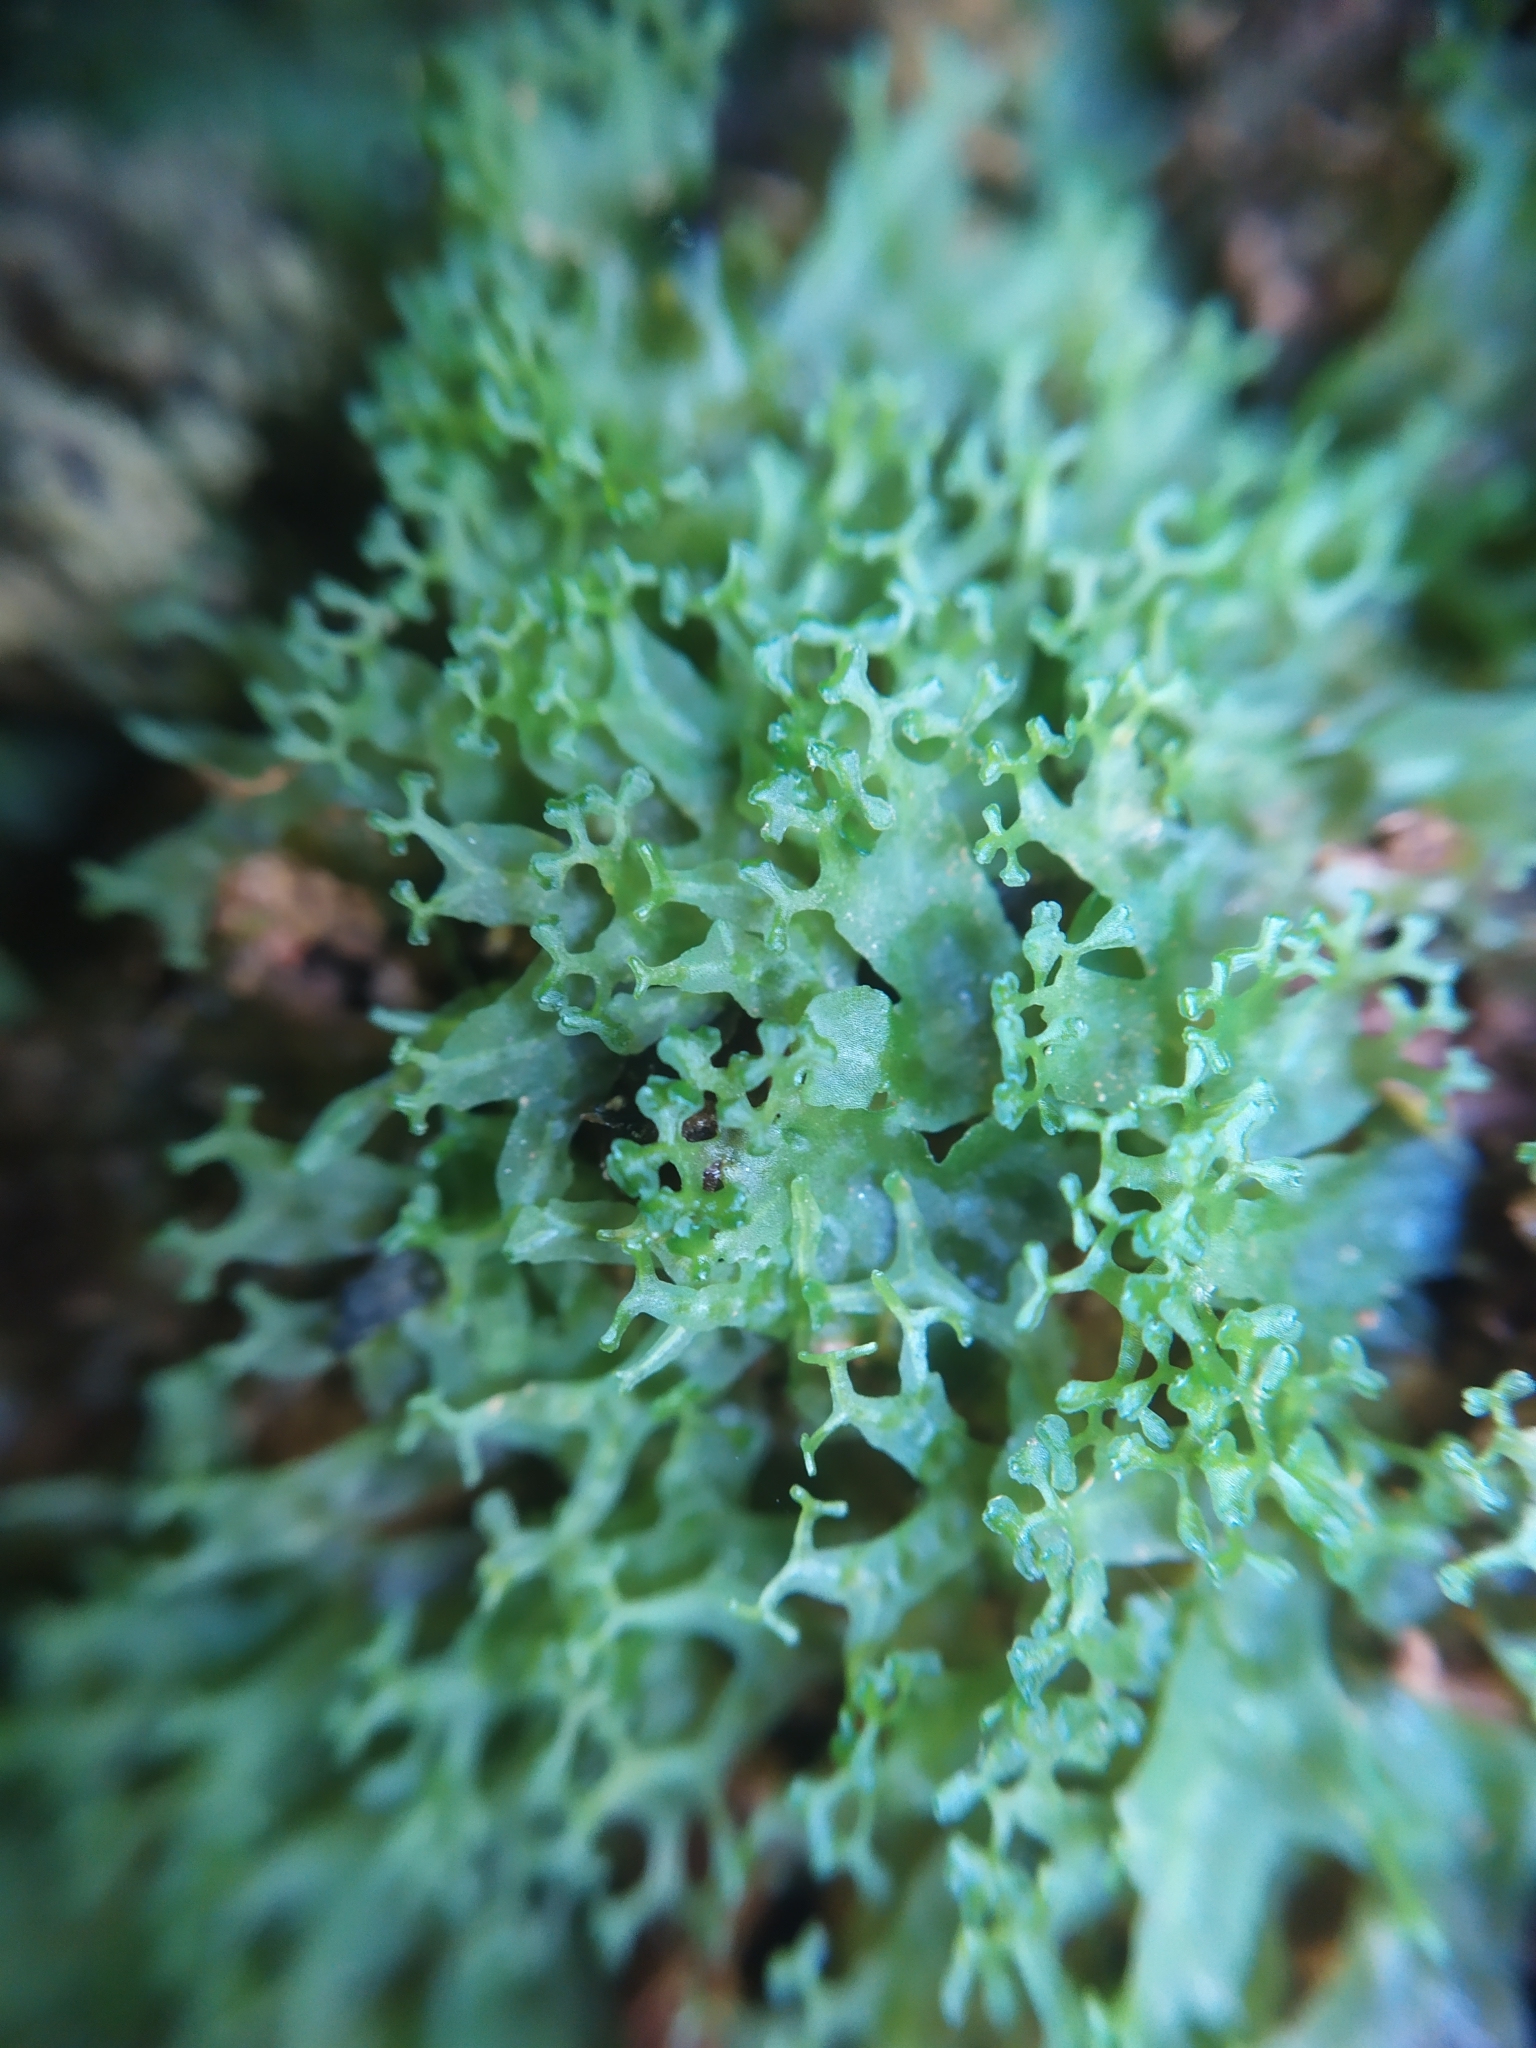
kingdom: Plantae
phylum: Marchantiophyta
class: Jungermanniopsida
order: Pelliales
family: Pelliaceae
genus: Apopellia
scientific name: Apopellia endiviifolia
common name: Endive pellia
